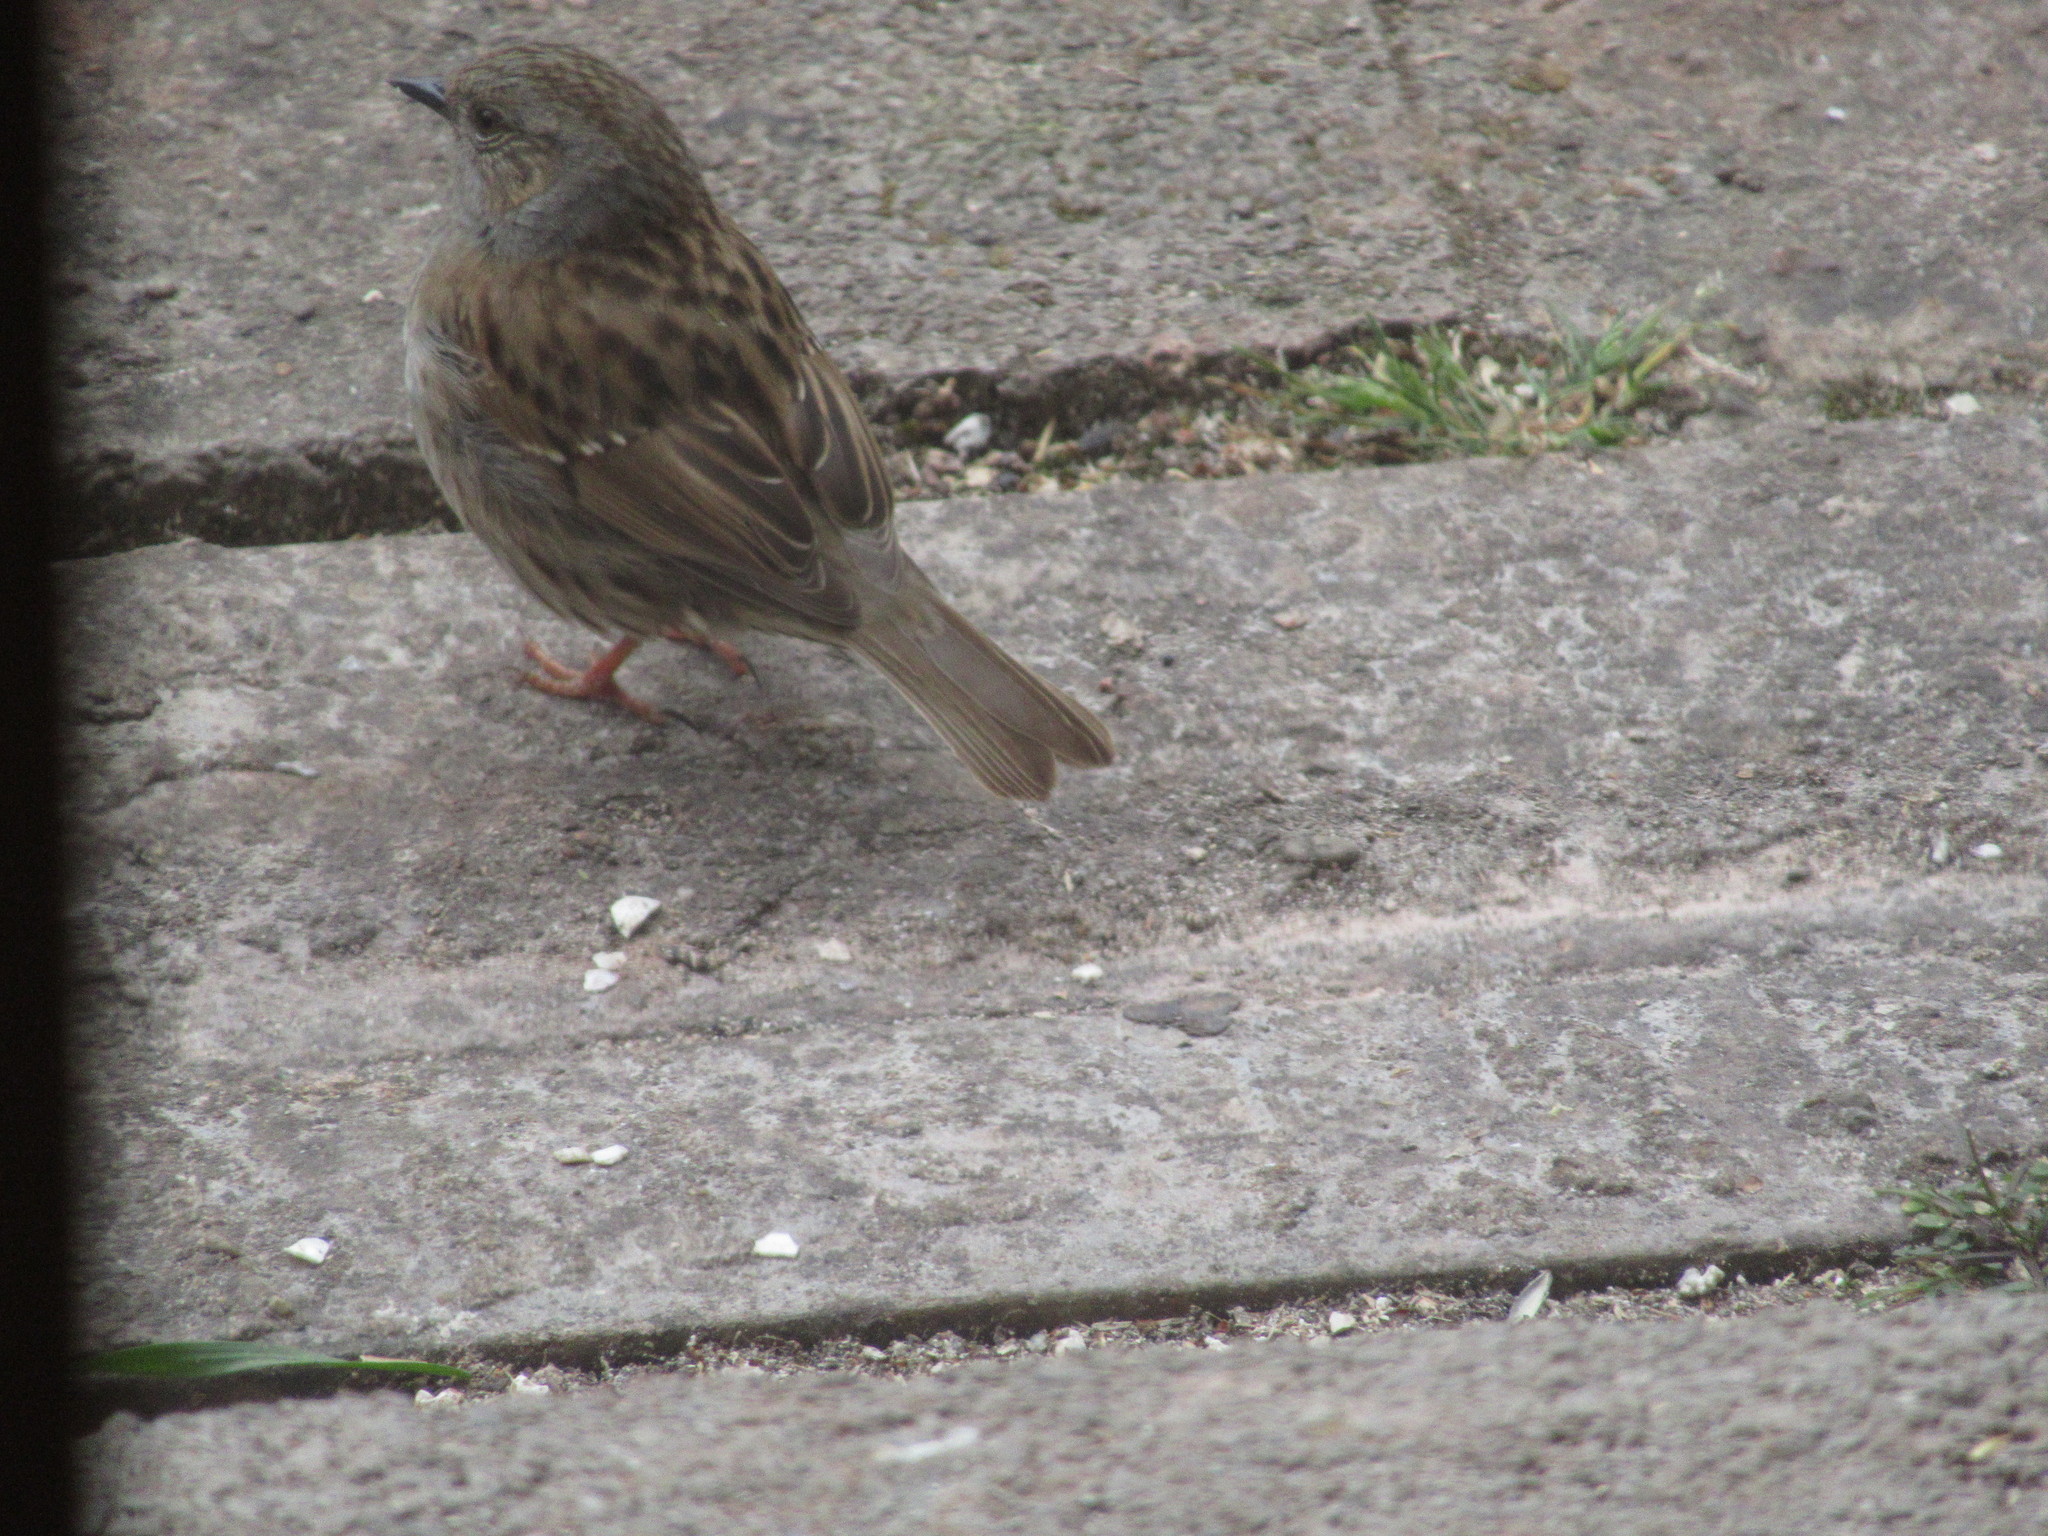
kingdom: Animalia
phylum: Chordata
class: Aves
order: Passeriformes
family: Prunellidae
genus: Prunella
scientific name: Prunella modularis
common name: Dunnock
